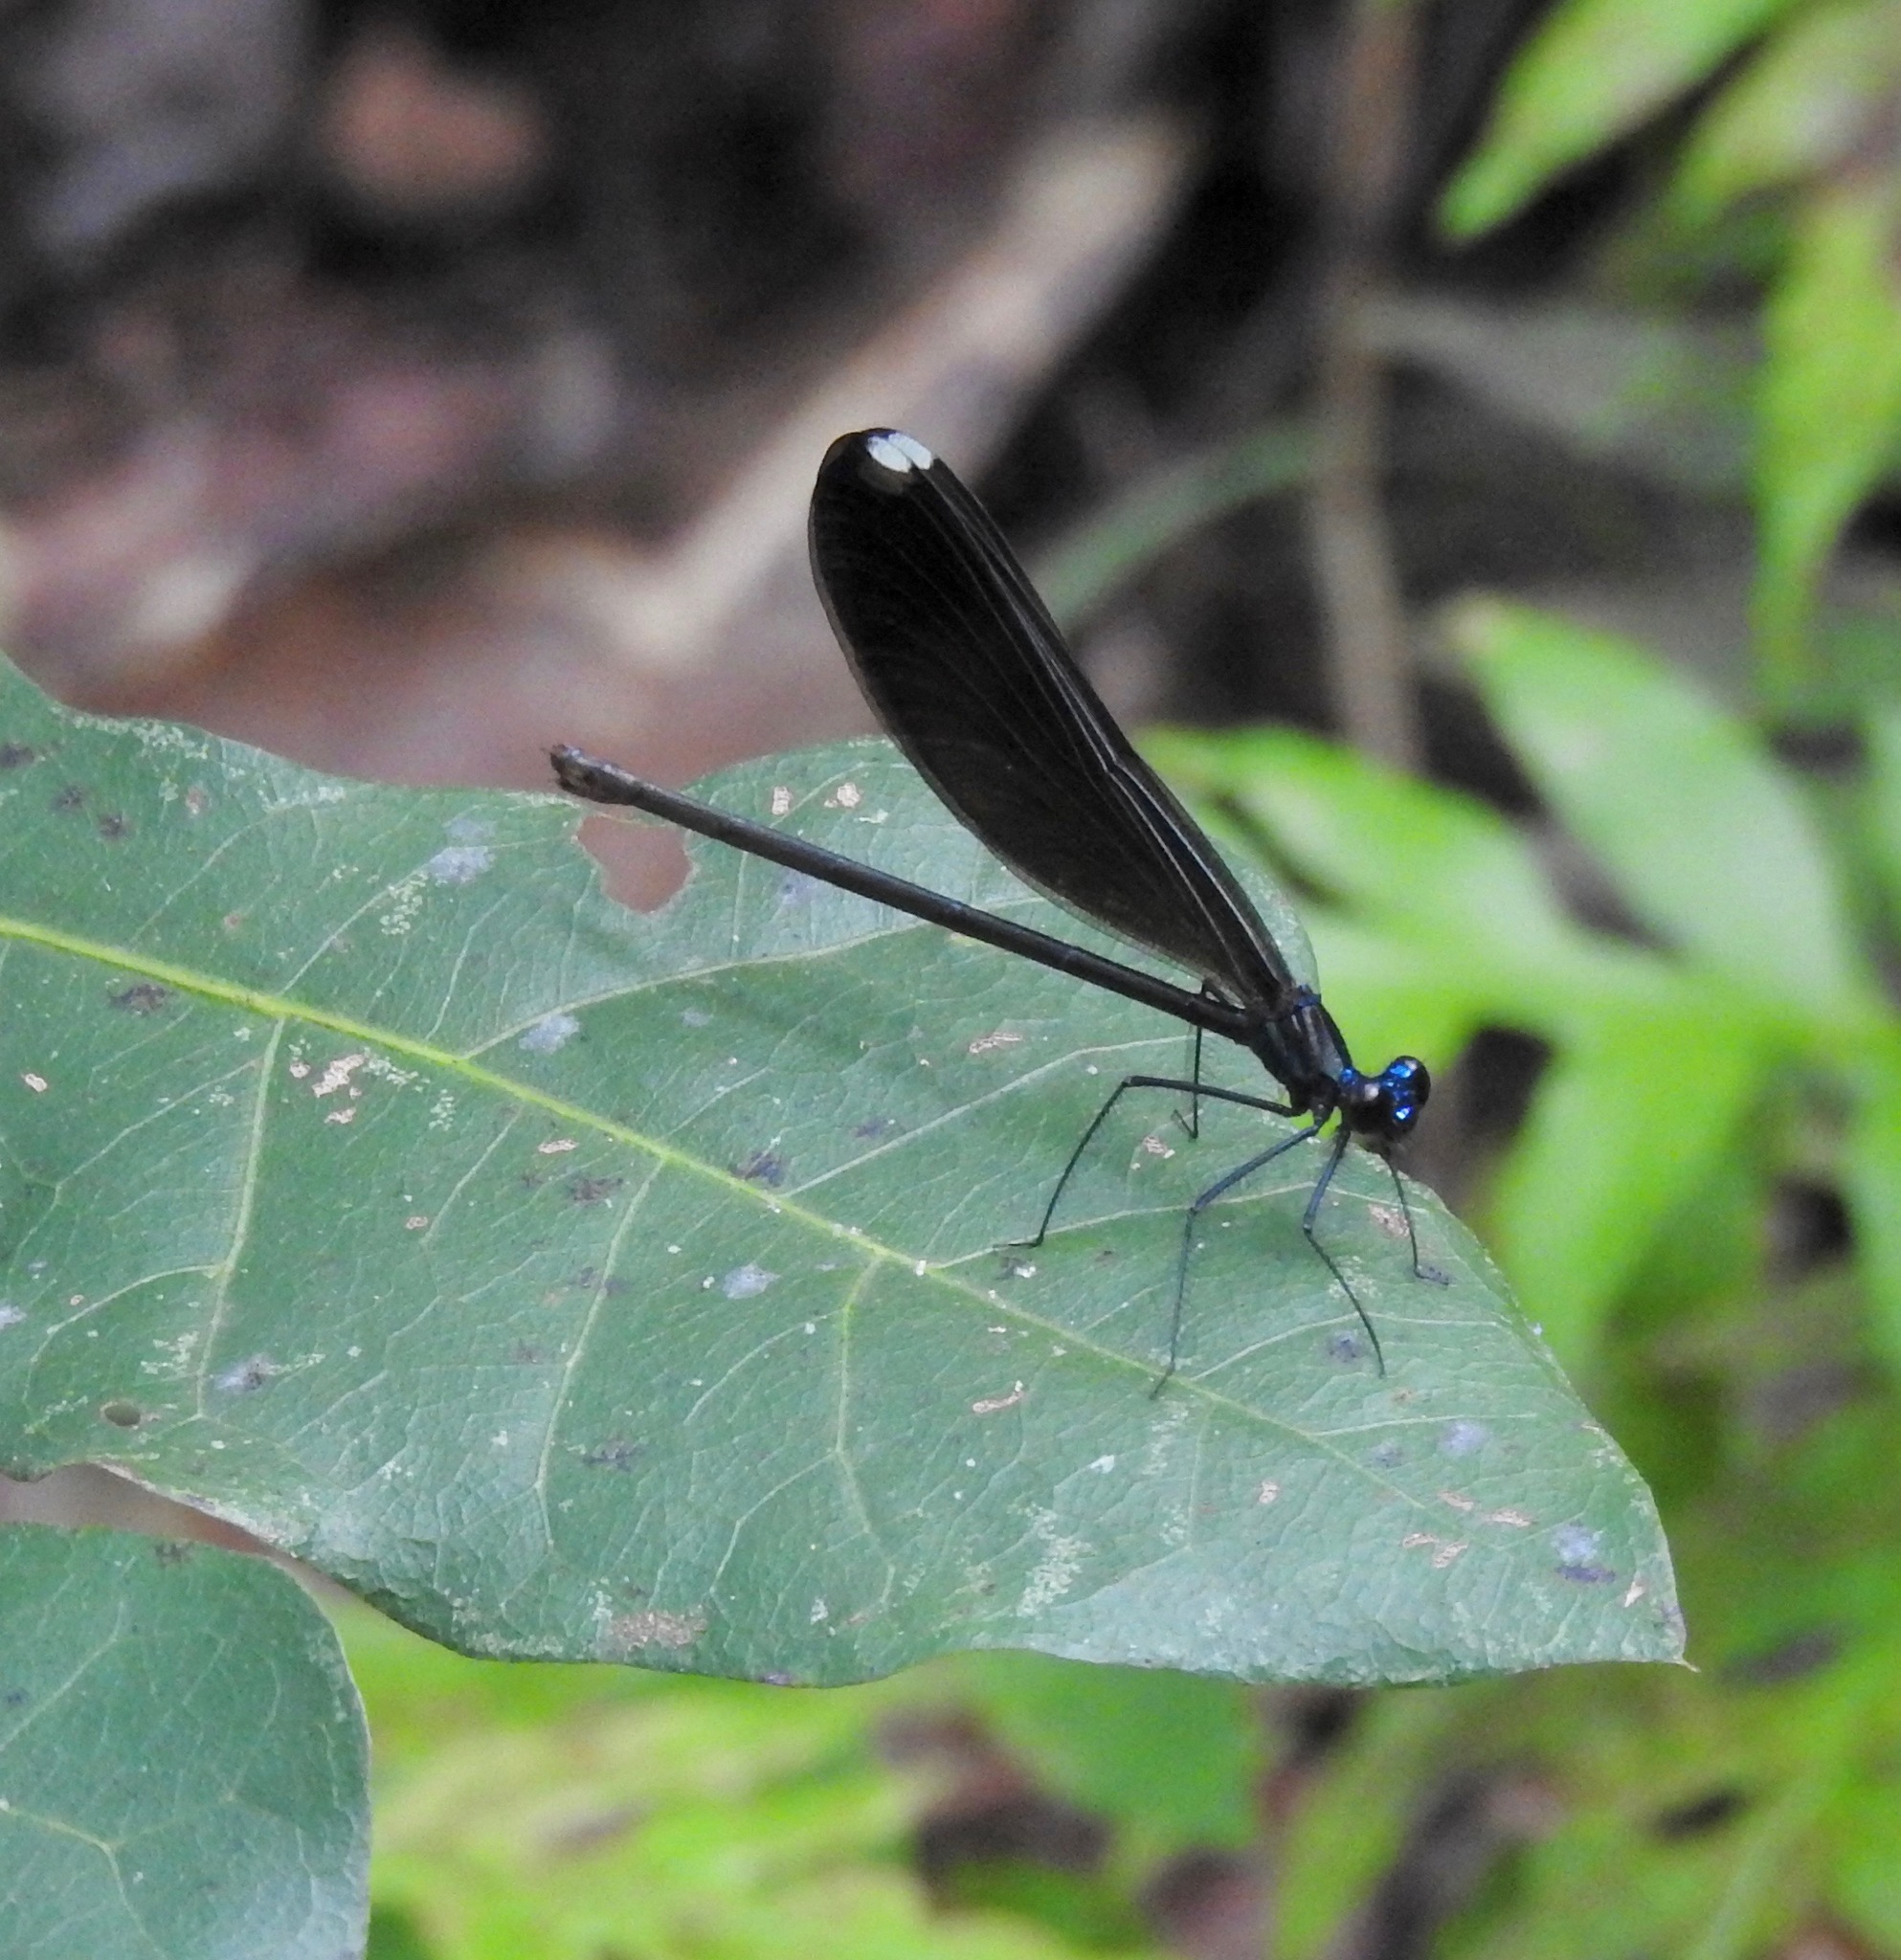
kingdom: Animalia
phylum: Arthropoda
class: Insecta
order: Odonata
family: Calopterygidae
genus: Calopteryx
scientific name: Calopteryx maculata
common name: Ebony jewelwing
